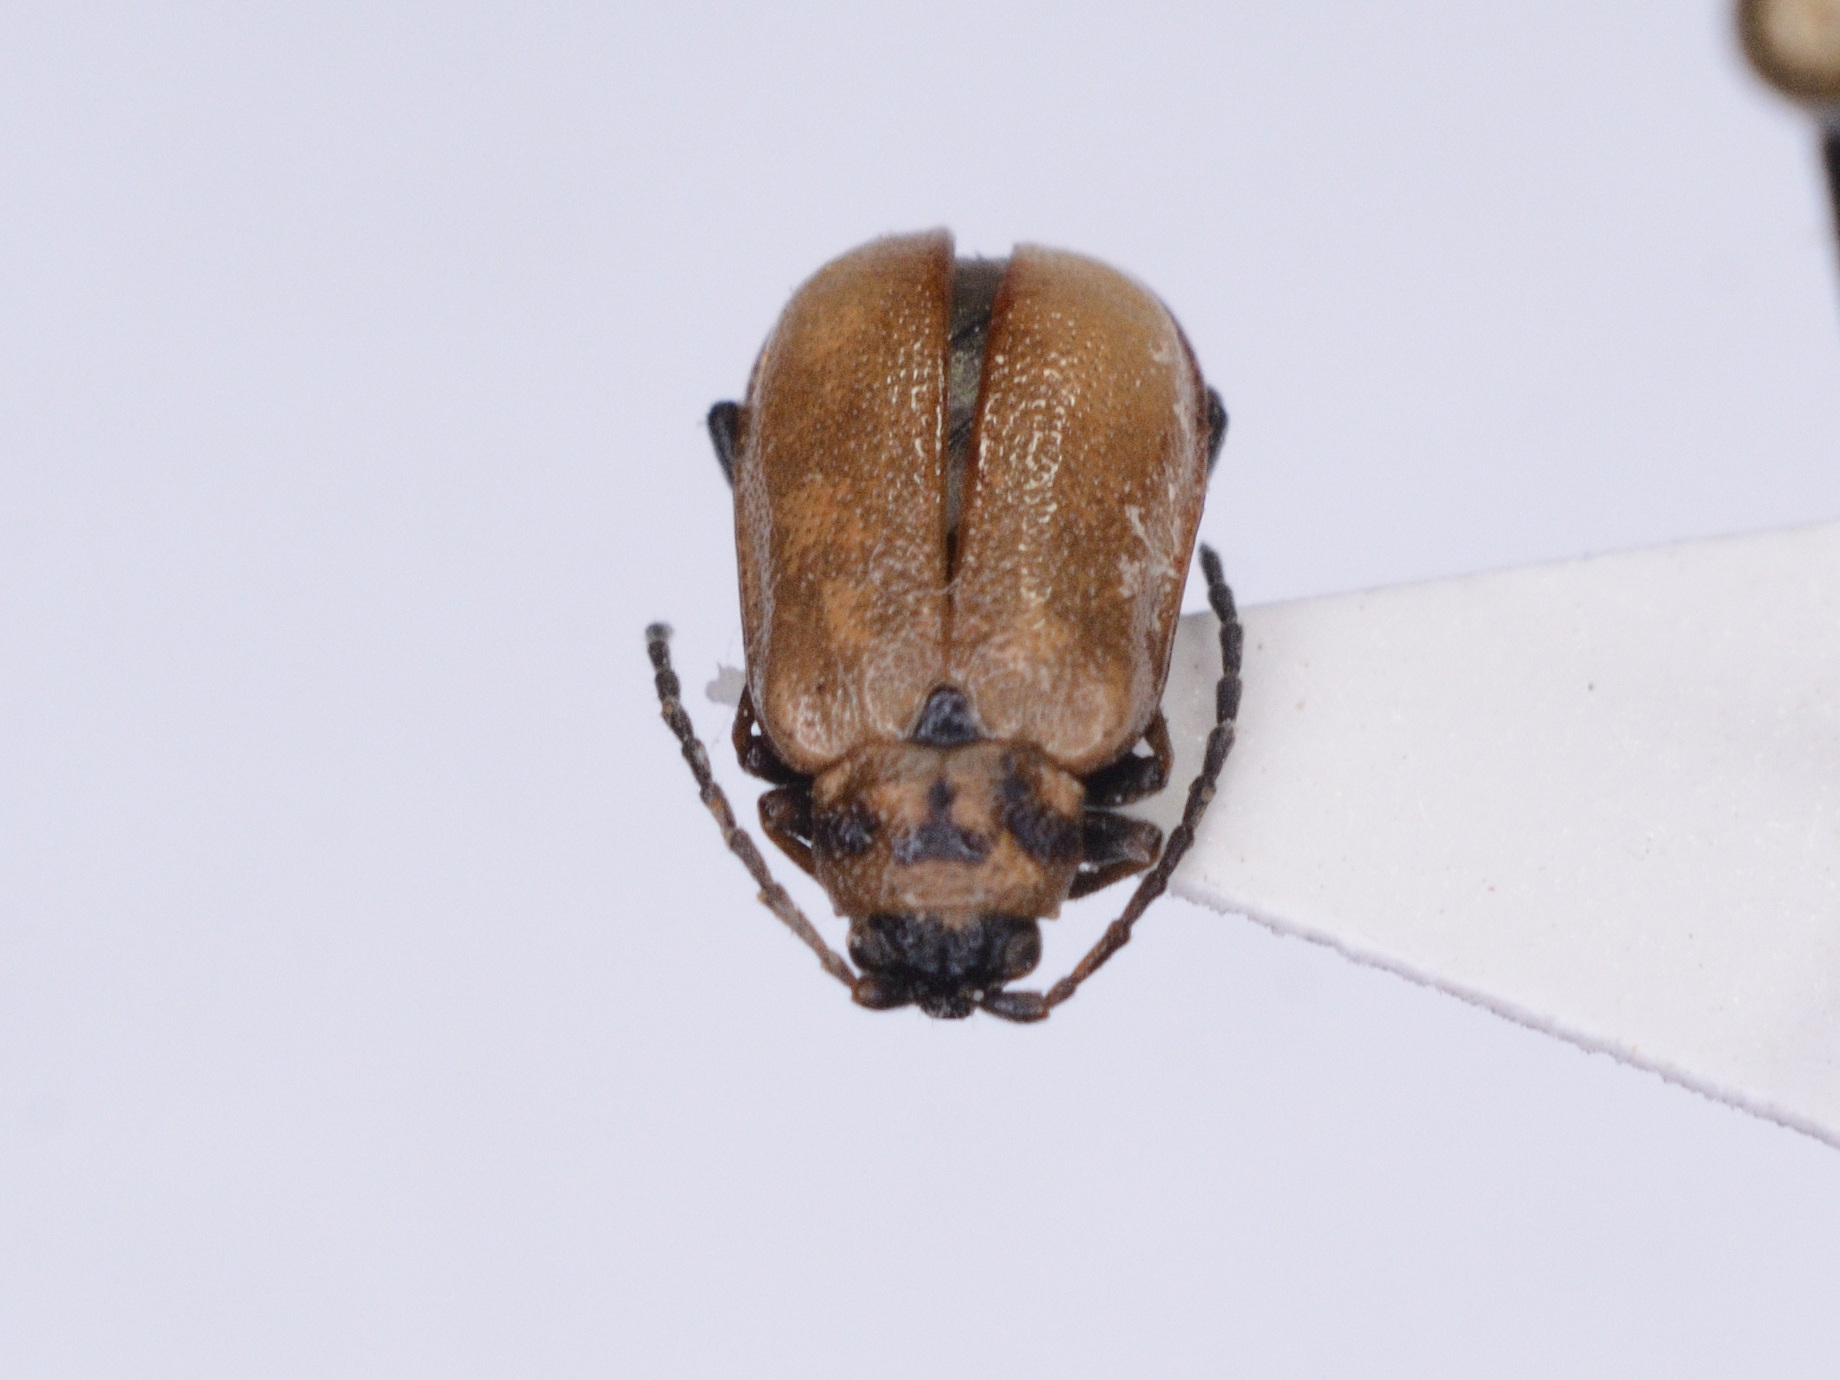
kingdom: Animalia
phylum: Arthropoda
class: Insecta
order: Coleoptera
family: Chrysomelidae
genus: Lochmaea
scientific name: Lochmaea caprea
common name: Willow leaf beetle
